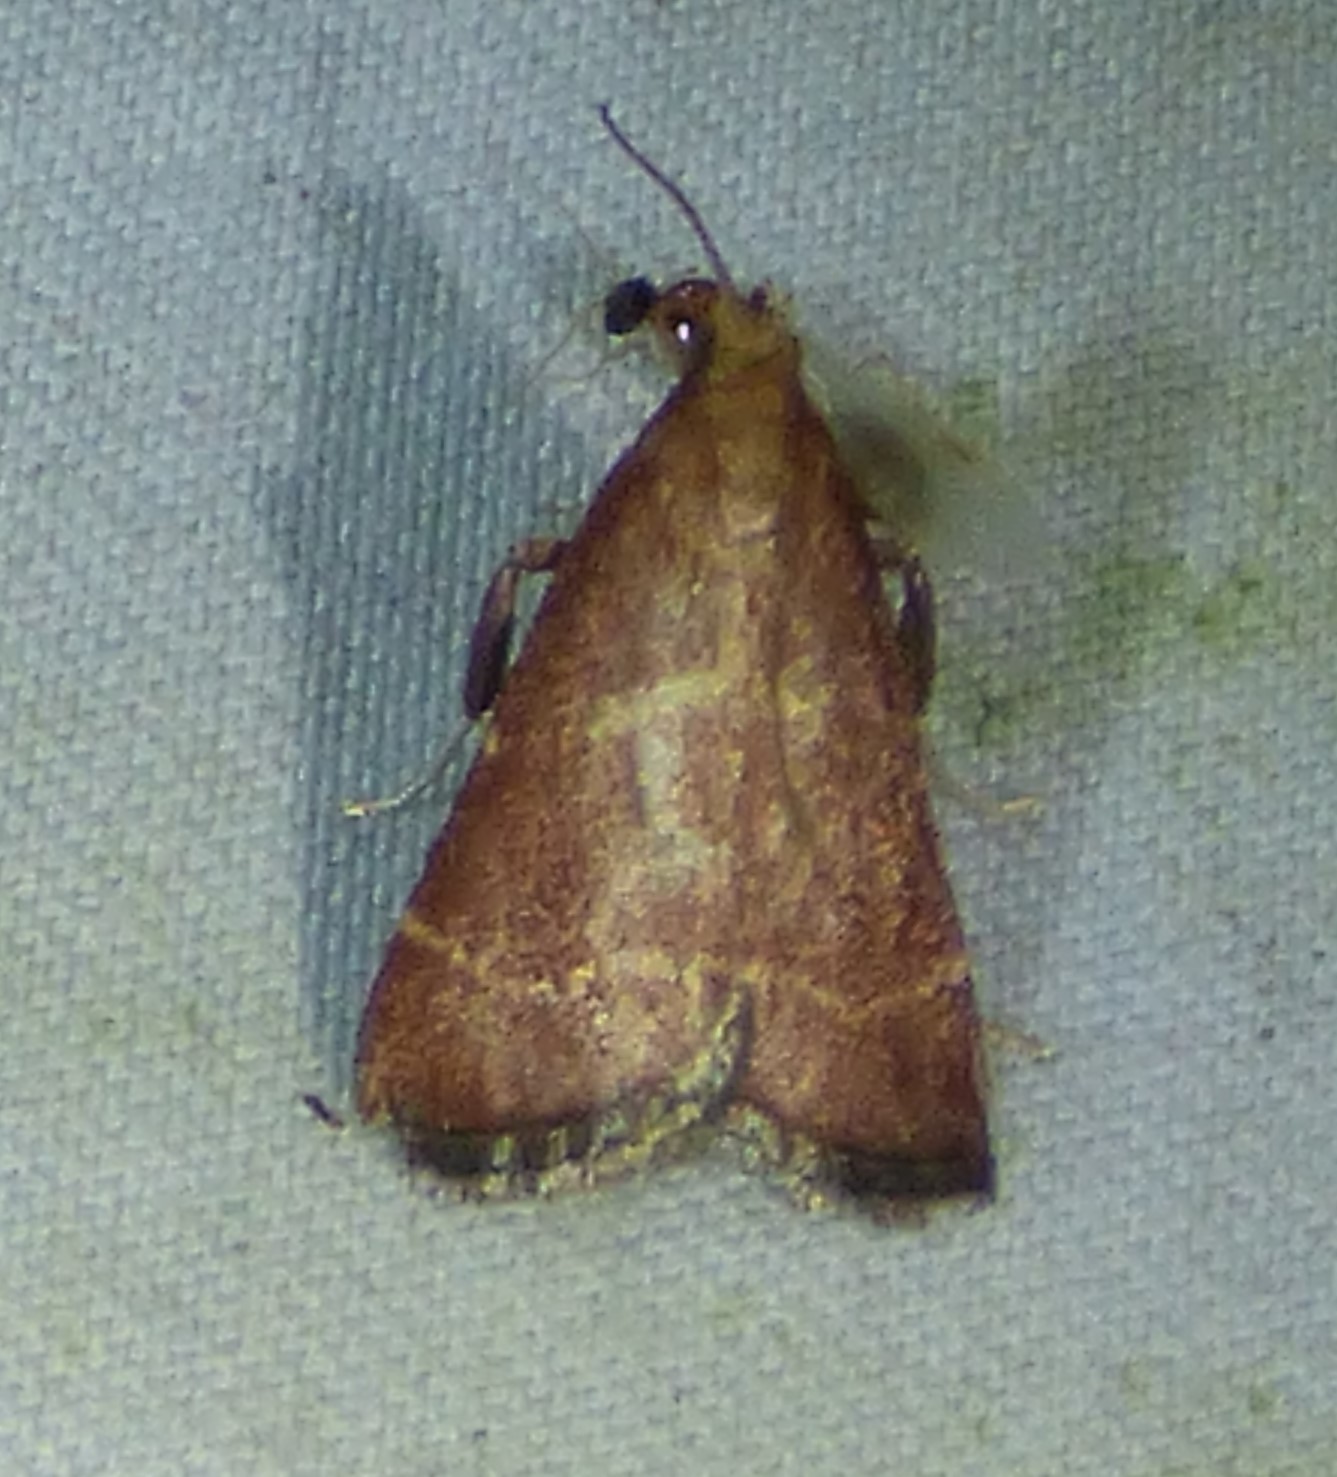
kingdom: Animalia
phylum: Arthropoda
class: Insecta
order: Lepidoptera
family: Pyralidae
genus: Arta
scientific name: Arta statalis
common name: Posturing arta moth
